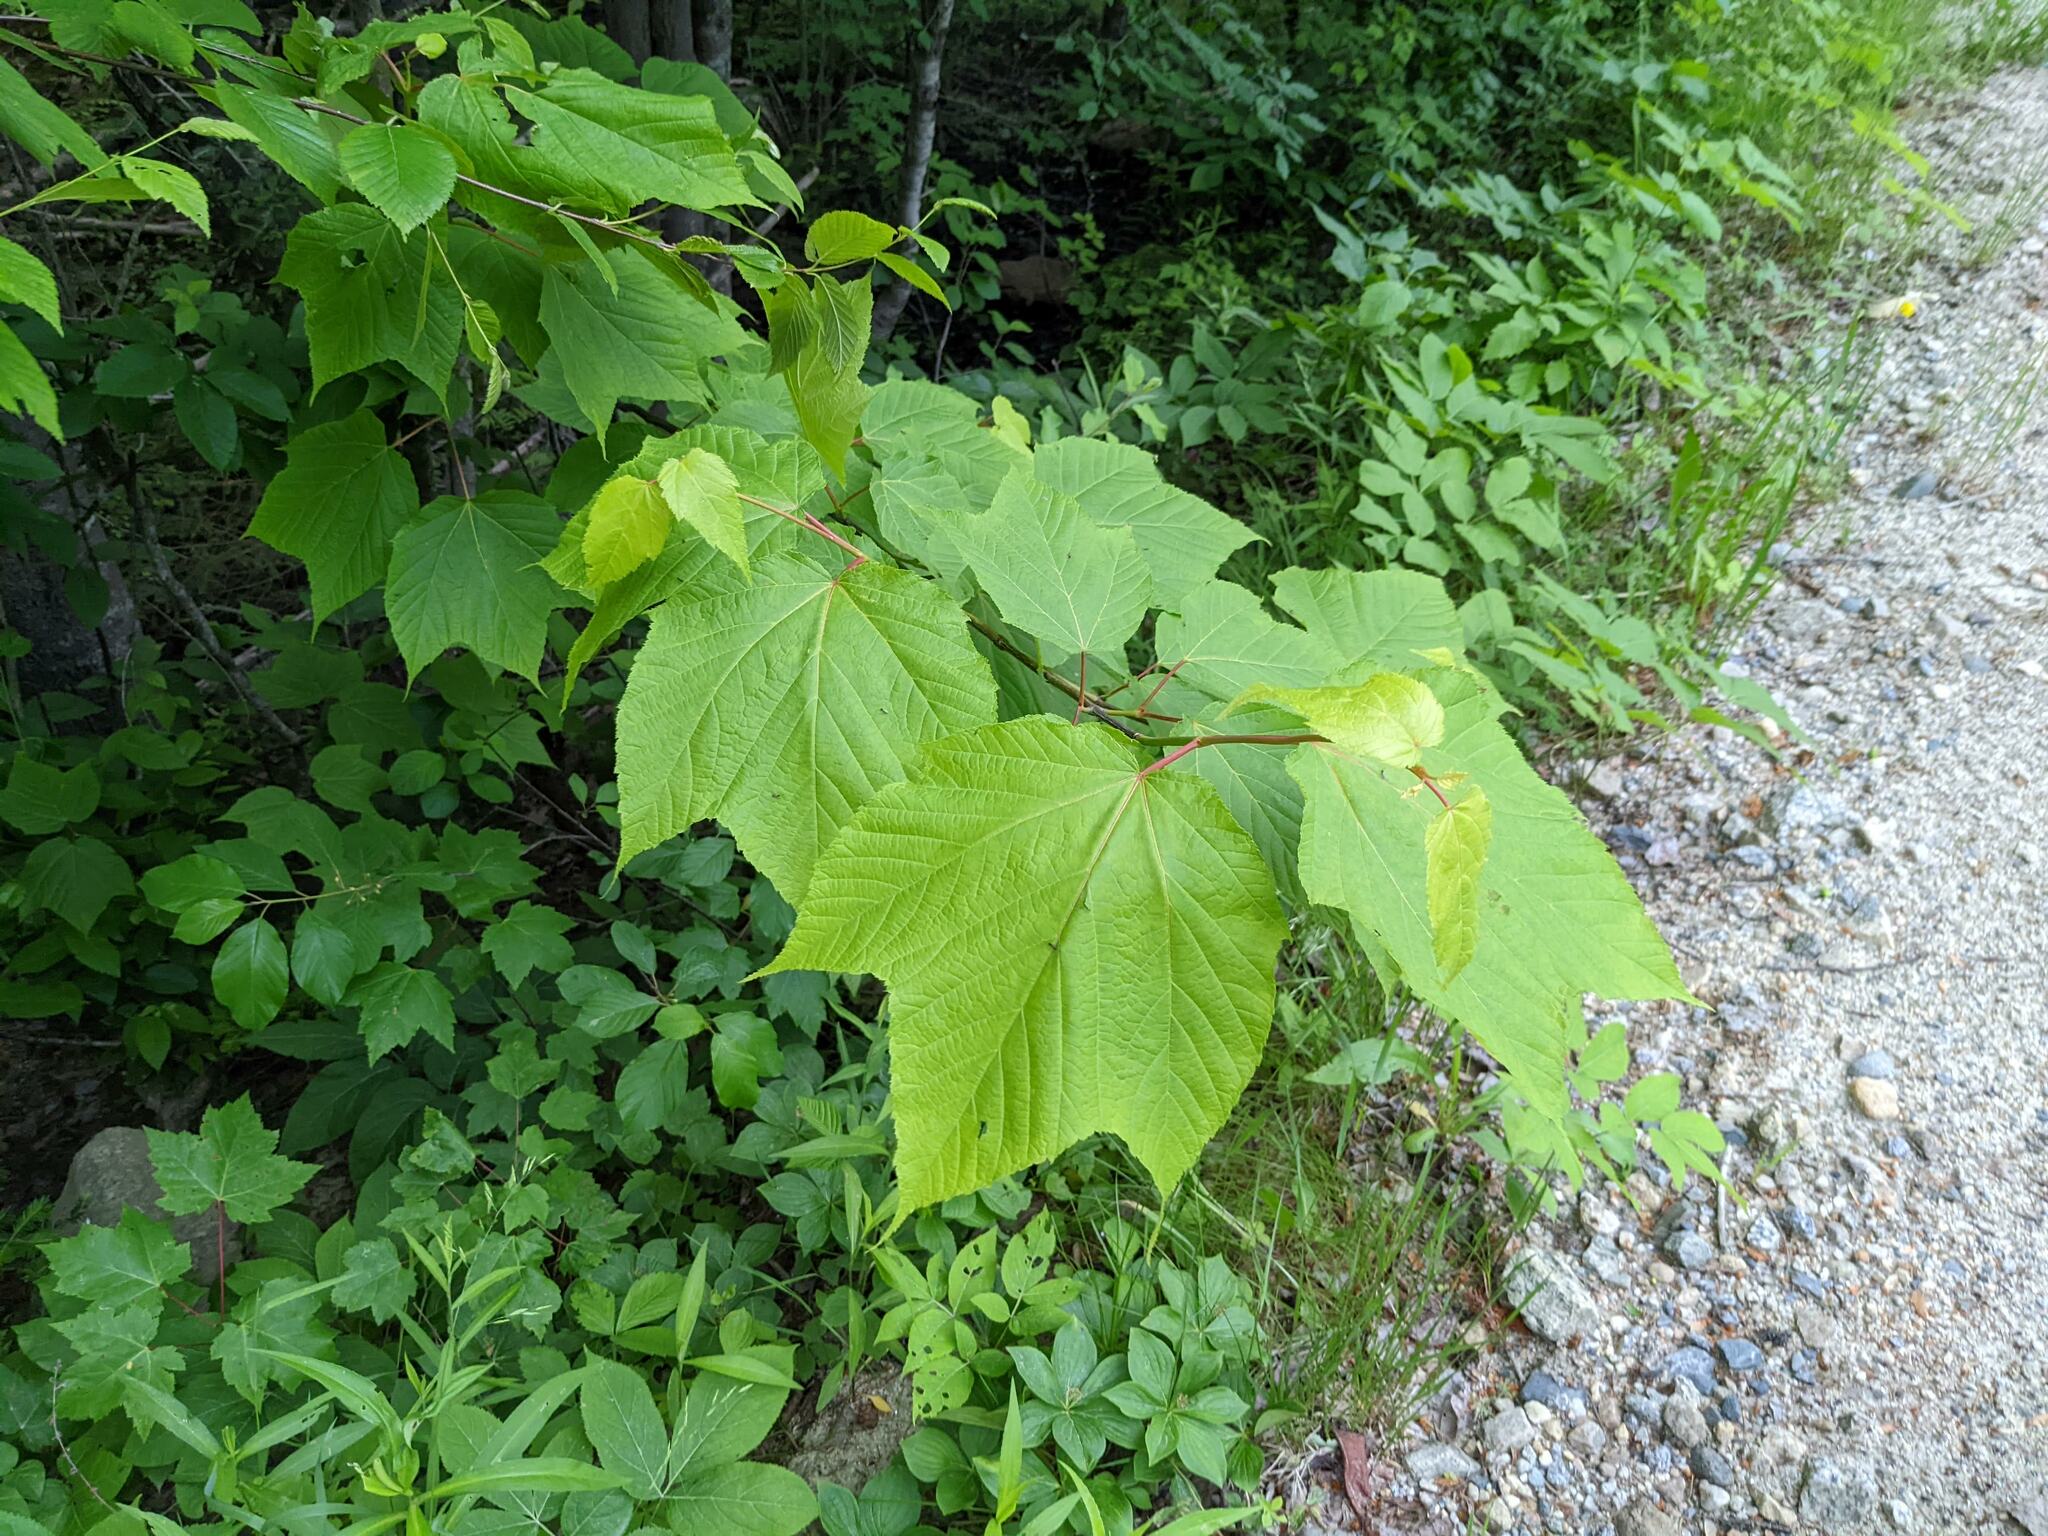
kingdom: Plantae
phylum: Tracheophyta
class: Magnoliopsida
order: Sapindales
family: Sapindaceae
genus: Acer
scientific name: Acer pensylvanicum
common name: Moosewood
